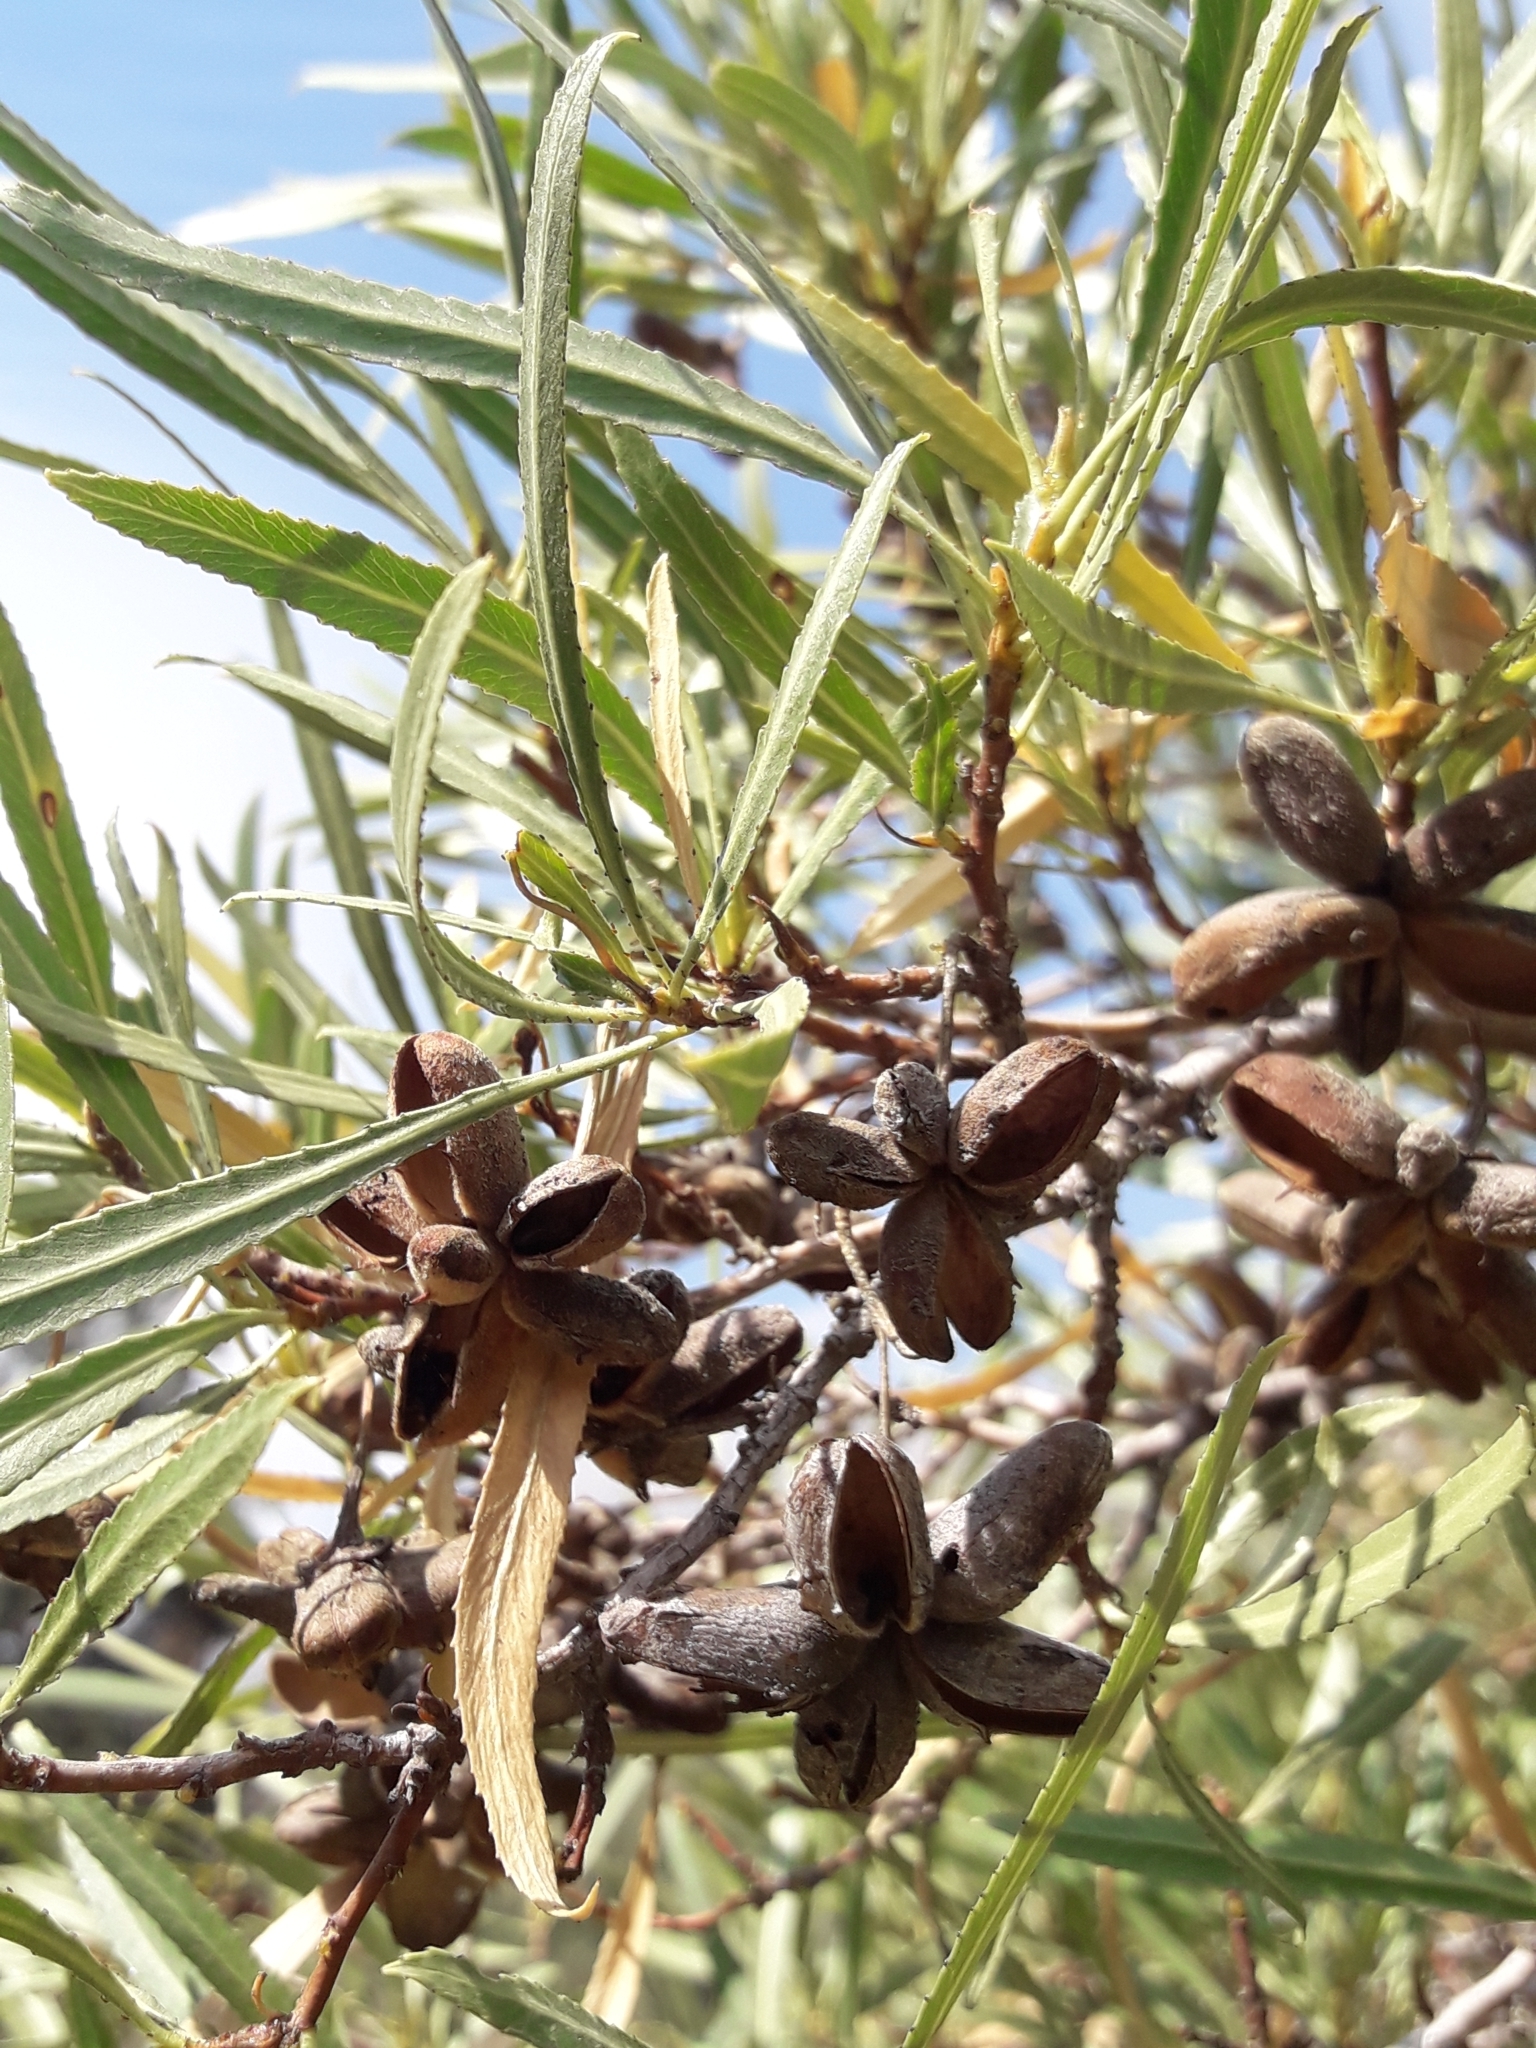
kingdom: Plantae
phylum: Tracheophyta
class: Magnoliopsida
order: Rosales
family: Rosaceae
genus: Kageneckia
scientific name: Kageneckia angustifolia
